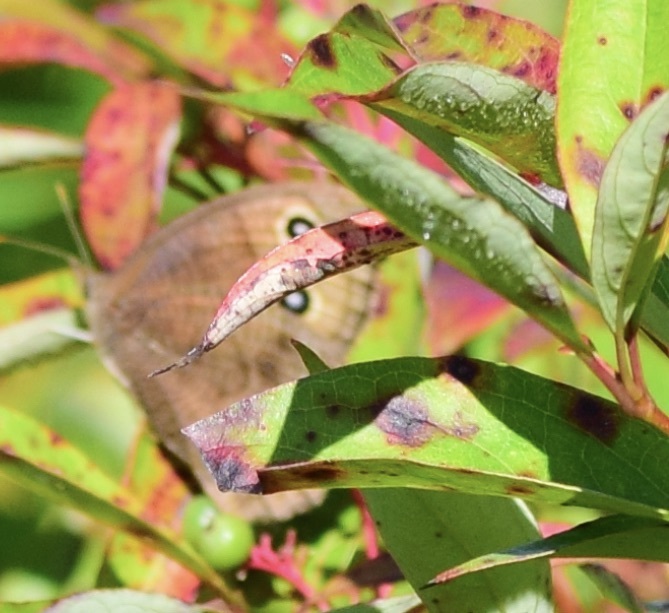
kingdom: Animalia
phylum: Arthropoda
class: Insecta
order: Lepidoptera
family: Nymphalidae
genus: Cercyonis
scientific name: Cercyonis pegala
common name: Common wood-nymph
